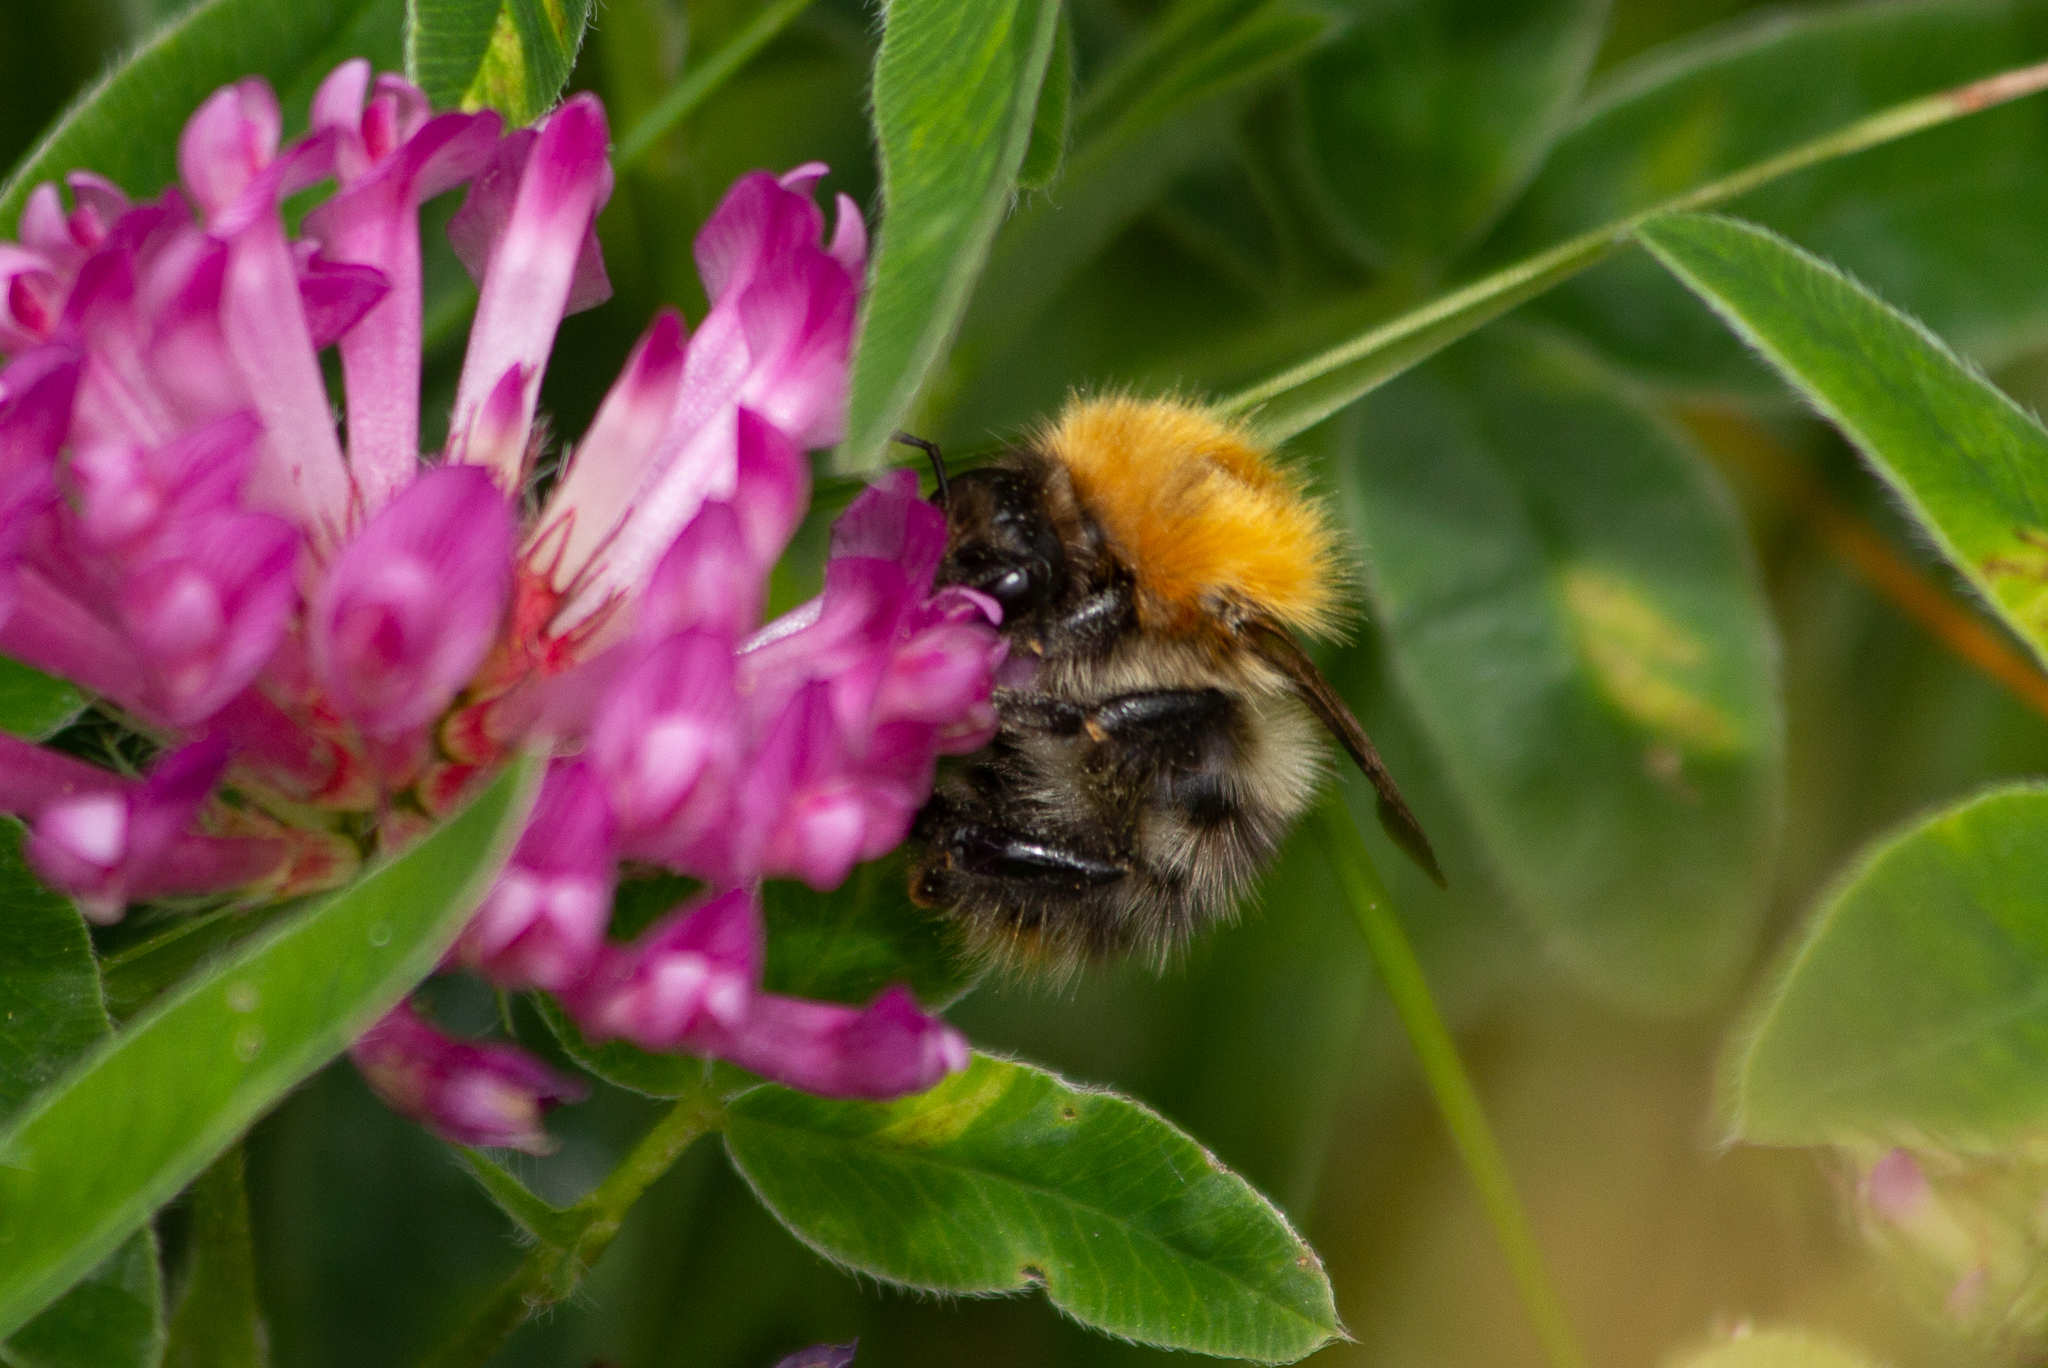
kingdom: Animalia
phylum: Arthropoda
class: Insecta
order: Hymenoptera
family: Apidae
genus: Bombus
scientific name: Bombus pascuorum
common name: Common carder bee
